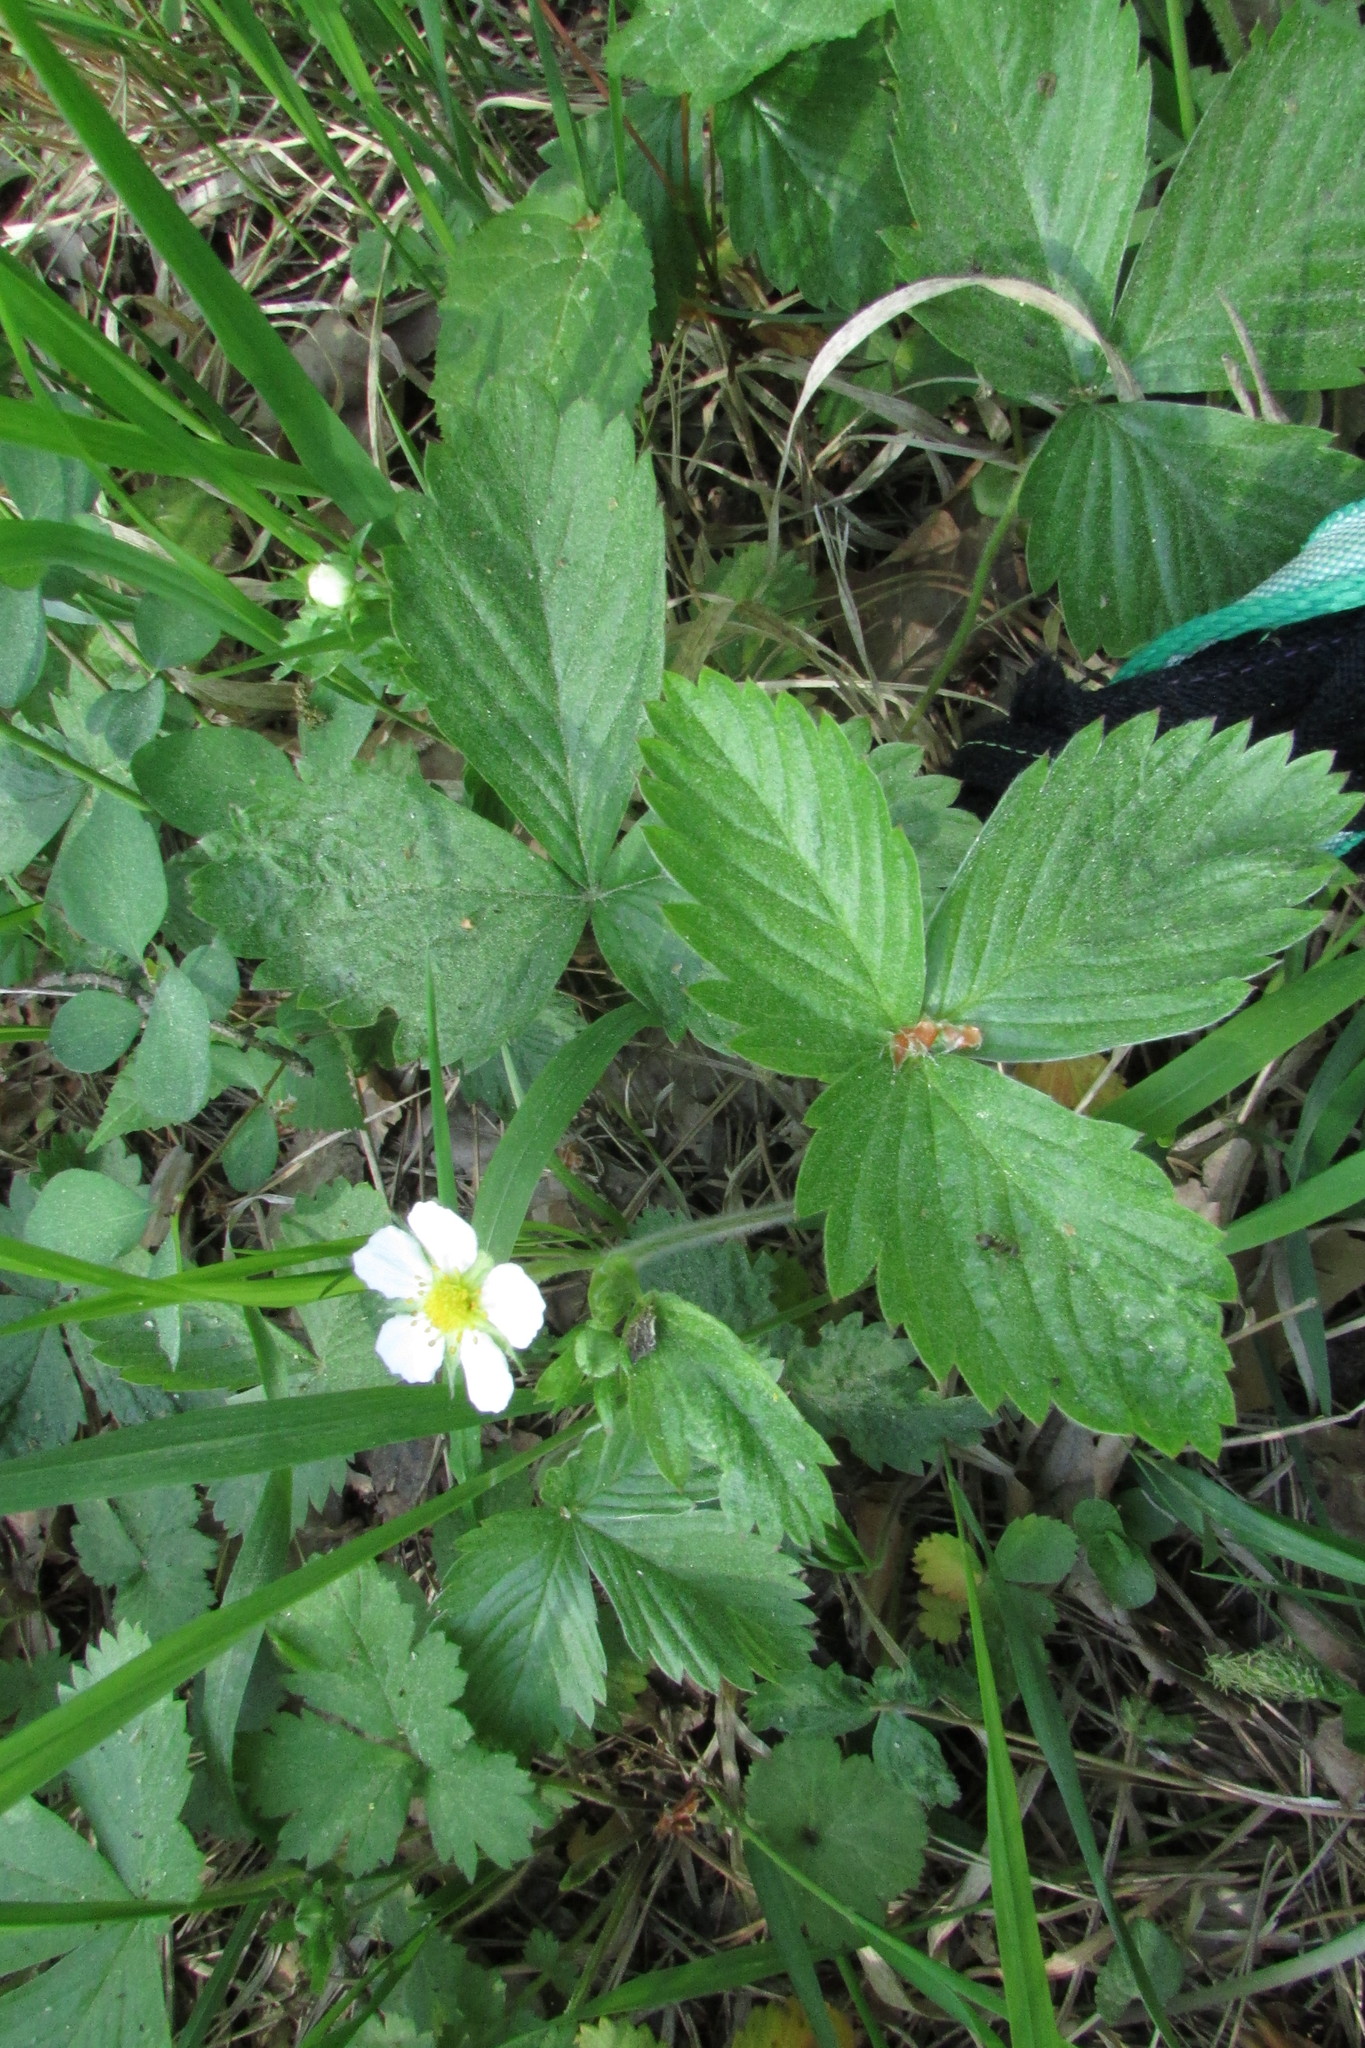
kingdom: Plantae
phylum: Tracheophyta
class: Magnoliopsida
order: Rosales
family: Rosaceae
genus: Fragaria
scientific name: Fragaria vesca
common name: Wild strawberry
